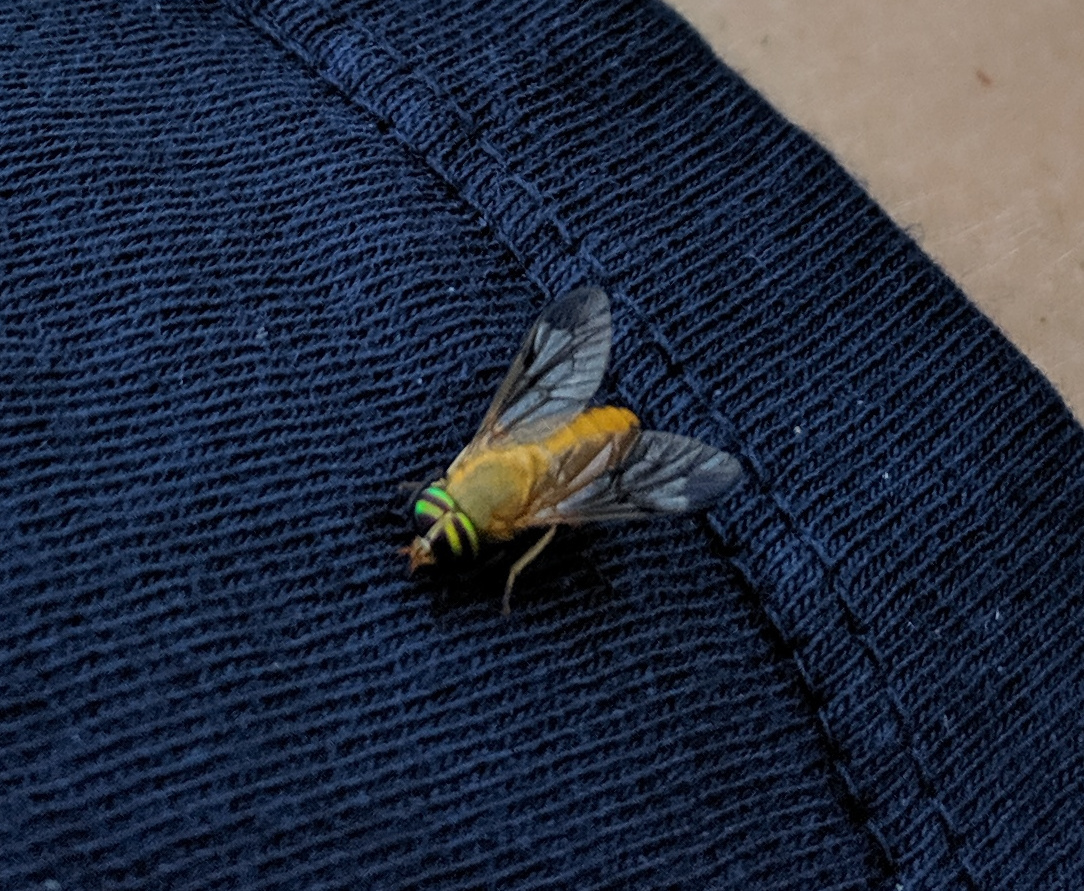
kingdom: Animalia
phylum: Arthropoda
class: Insecta
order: Diptera
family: Tabanidae
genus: Diachlorus
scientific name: Diachlorus ferrugatus
